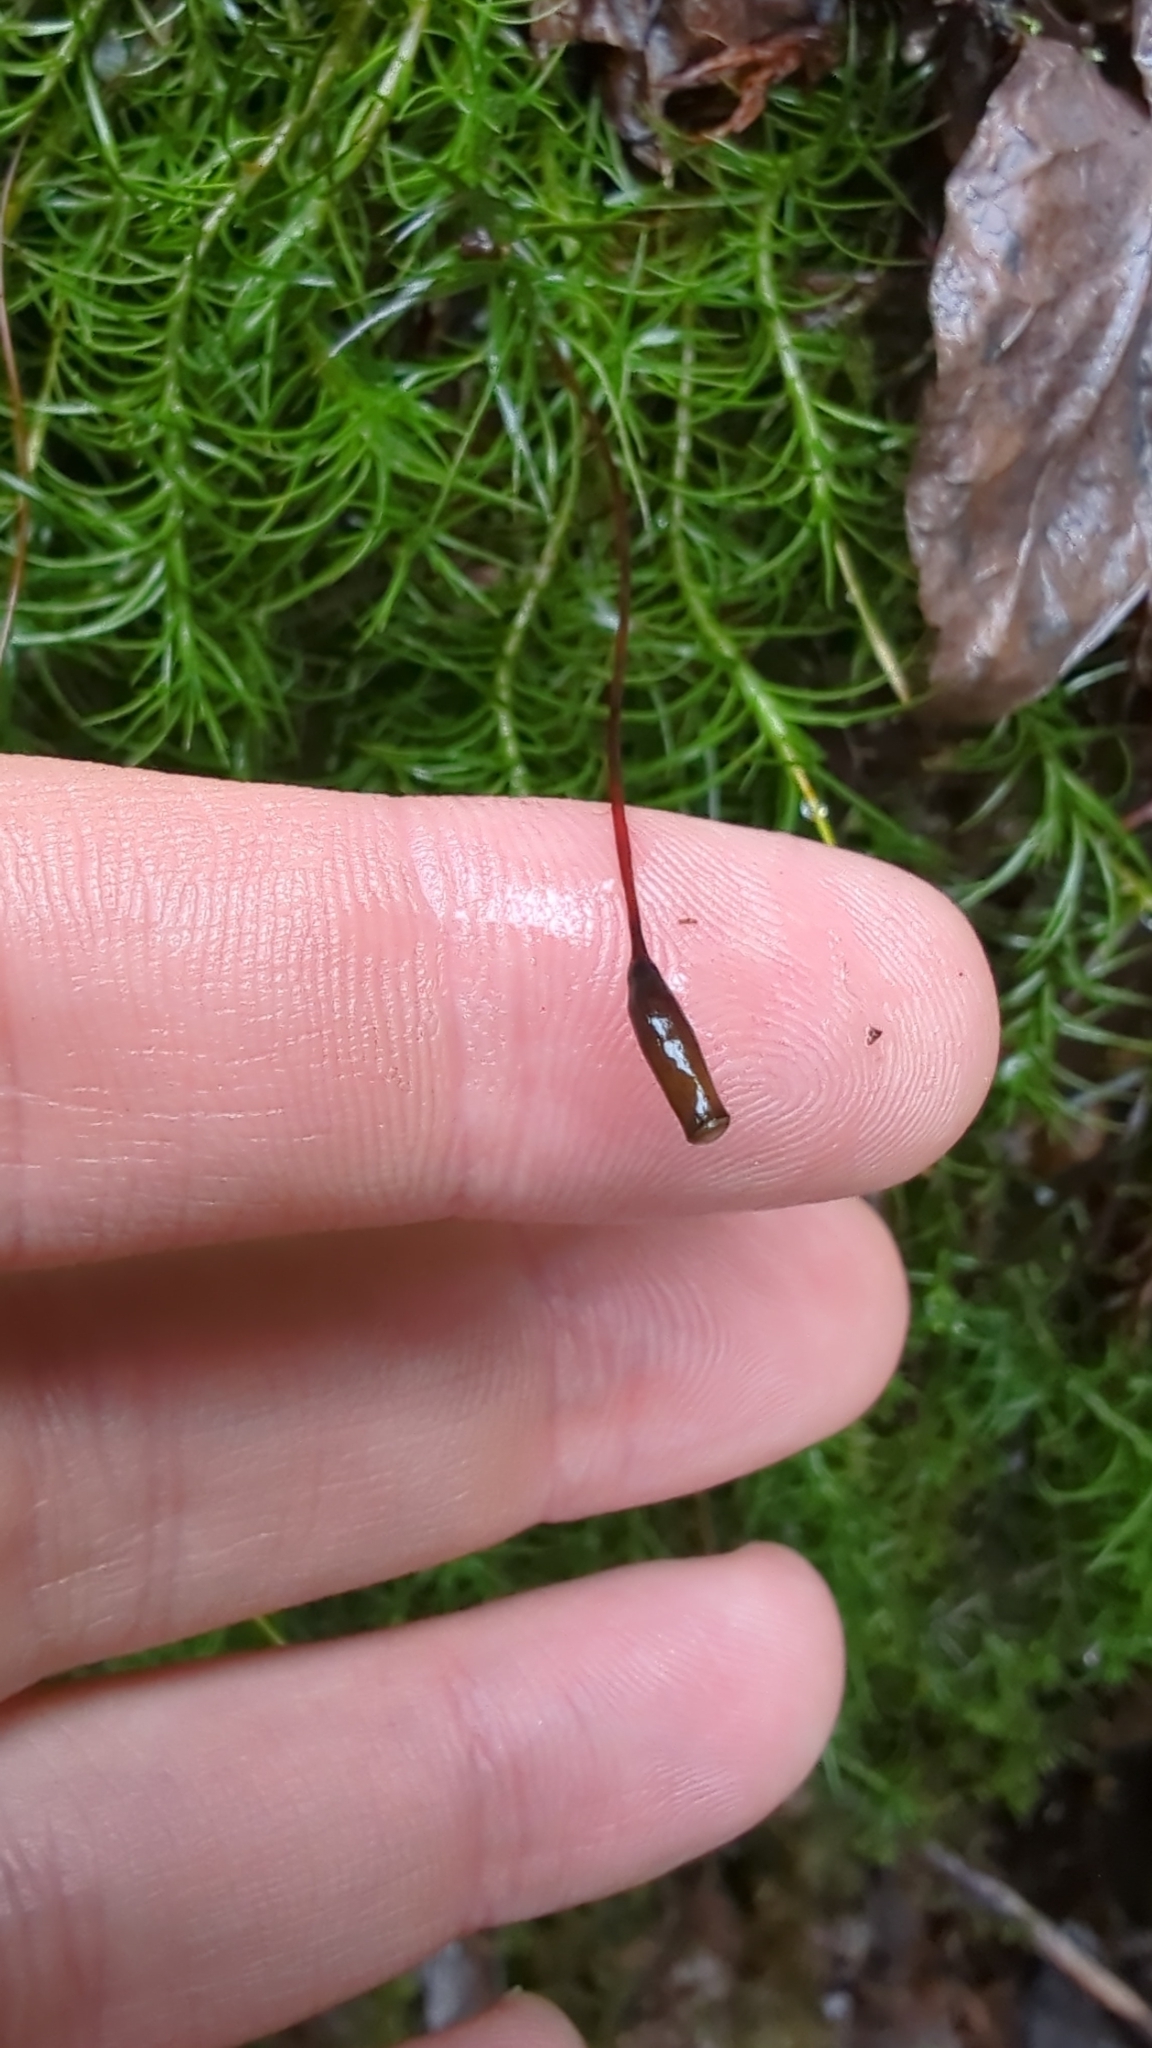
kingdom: Plantae
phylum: Bryophyta
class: Polytrichopsida
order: Polytrichales
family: Polytrichaceae
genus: Polytrichastrum
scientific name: Polytrichastrum alpinum
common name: Alpine haircap
